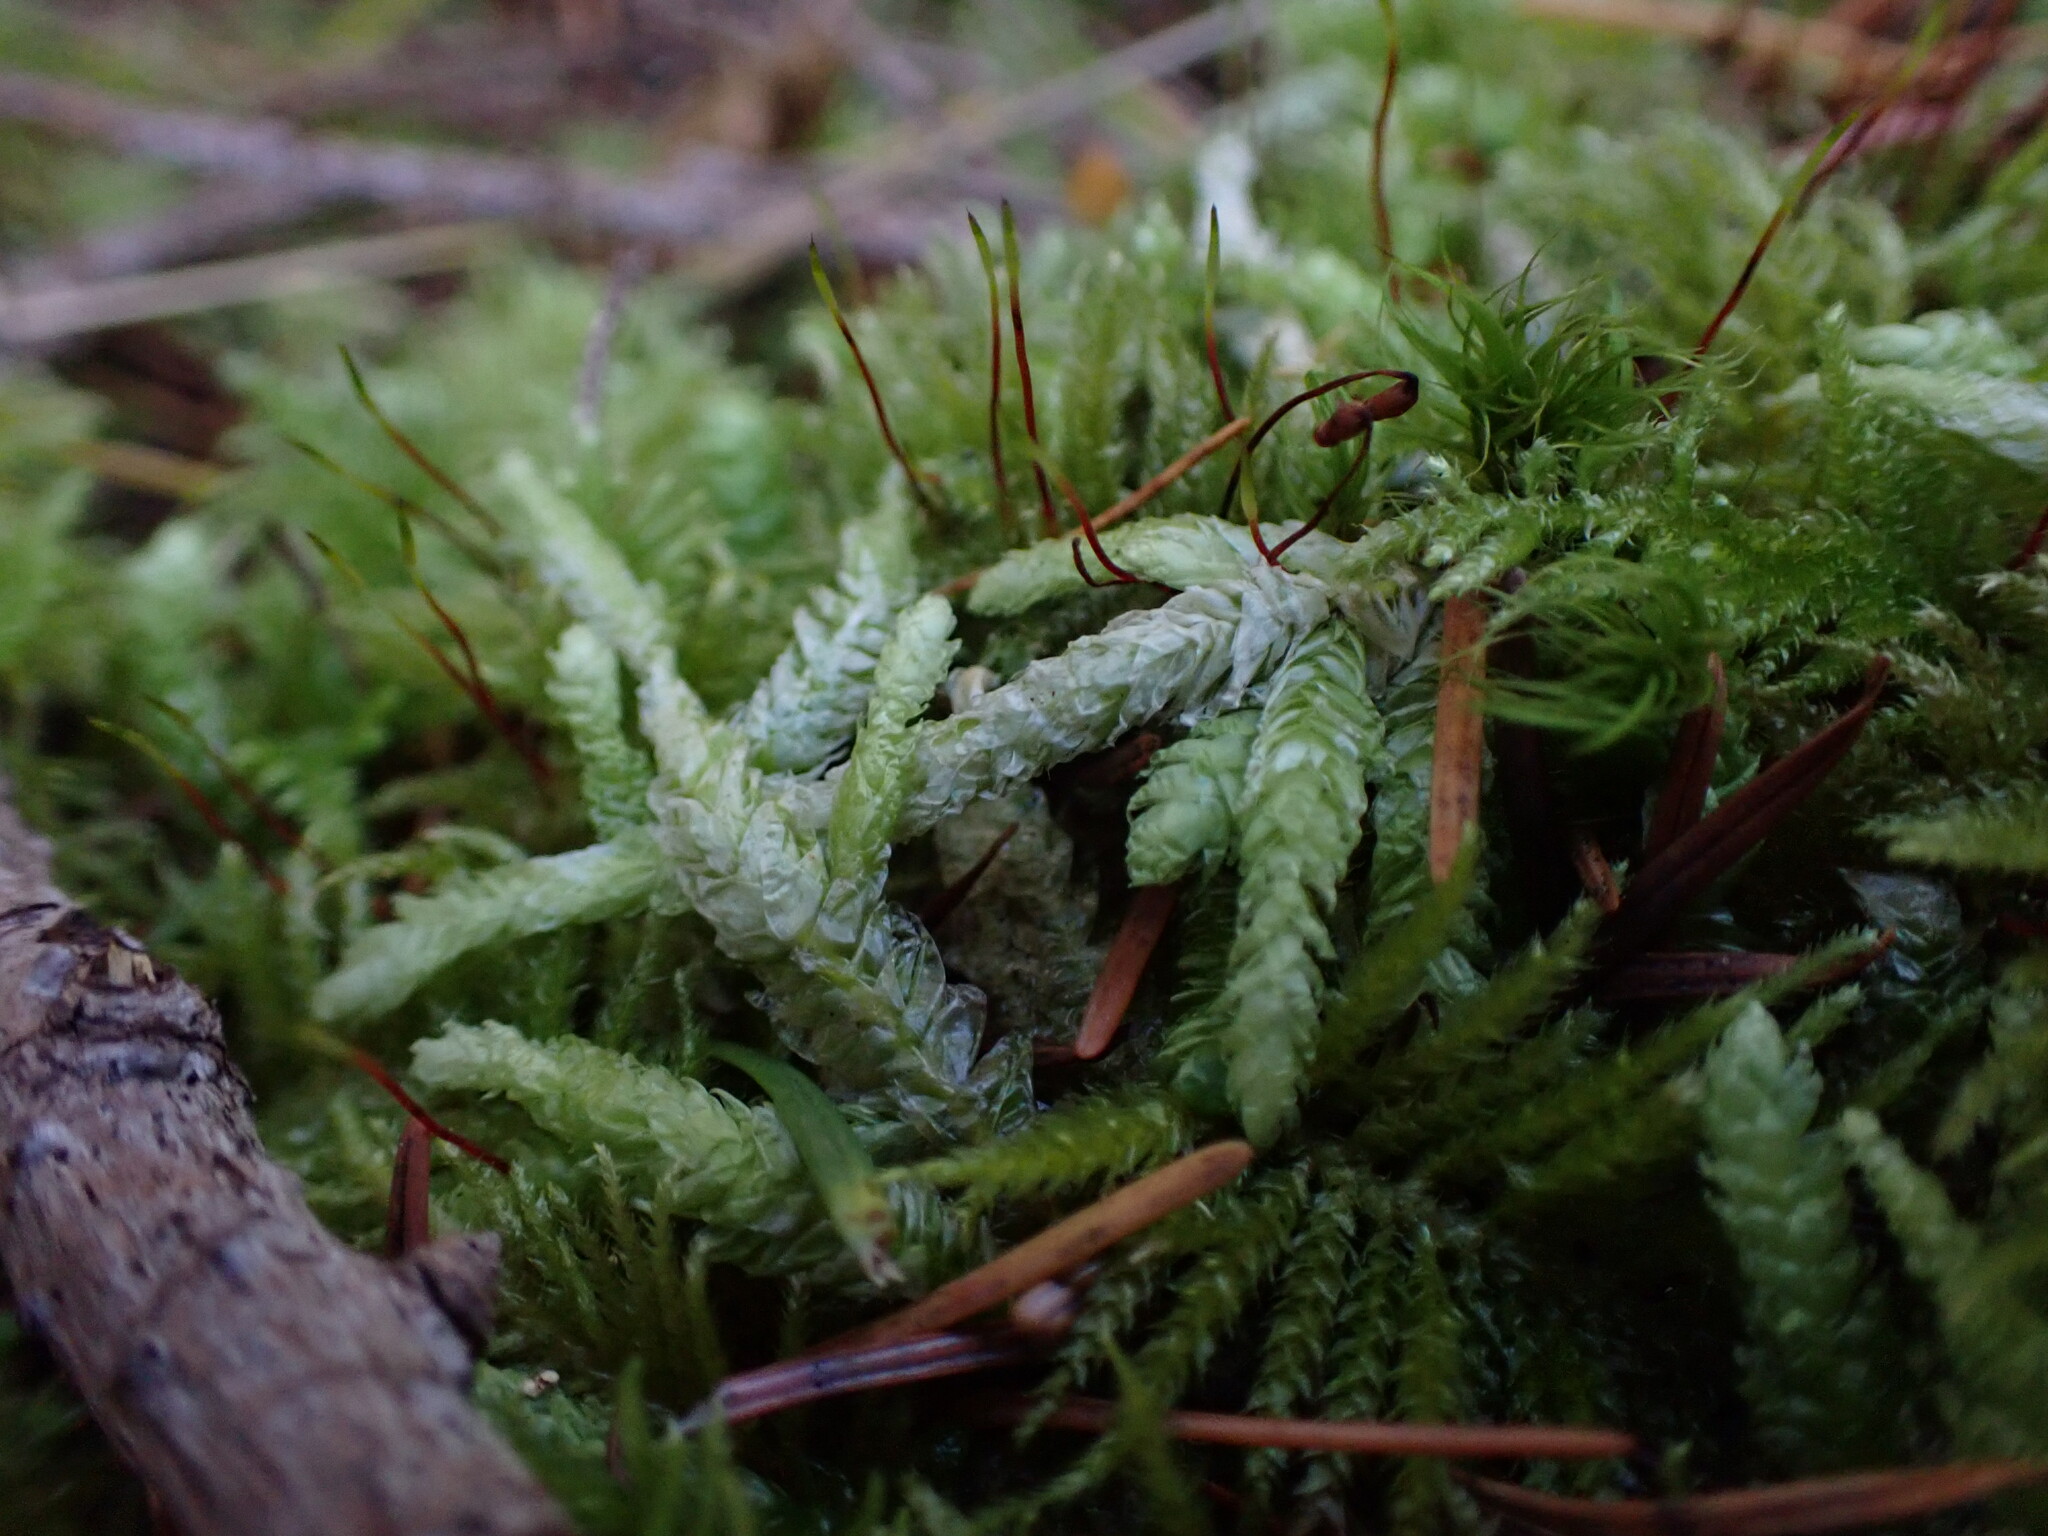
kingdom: Plantae
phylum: Bryophyta
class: Bryopsida
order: Hypnales
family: Plagiotheciaceae
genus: Plagiothecium
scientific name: Plagiothecium undulatum
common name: Waved silk-moss
